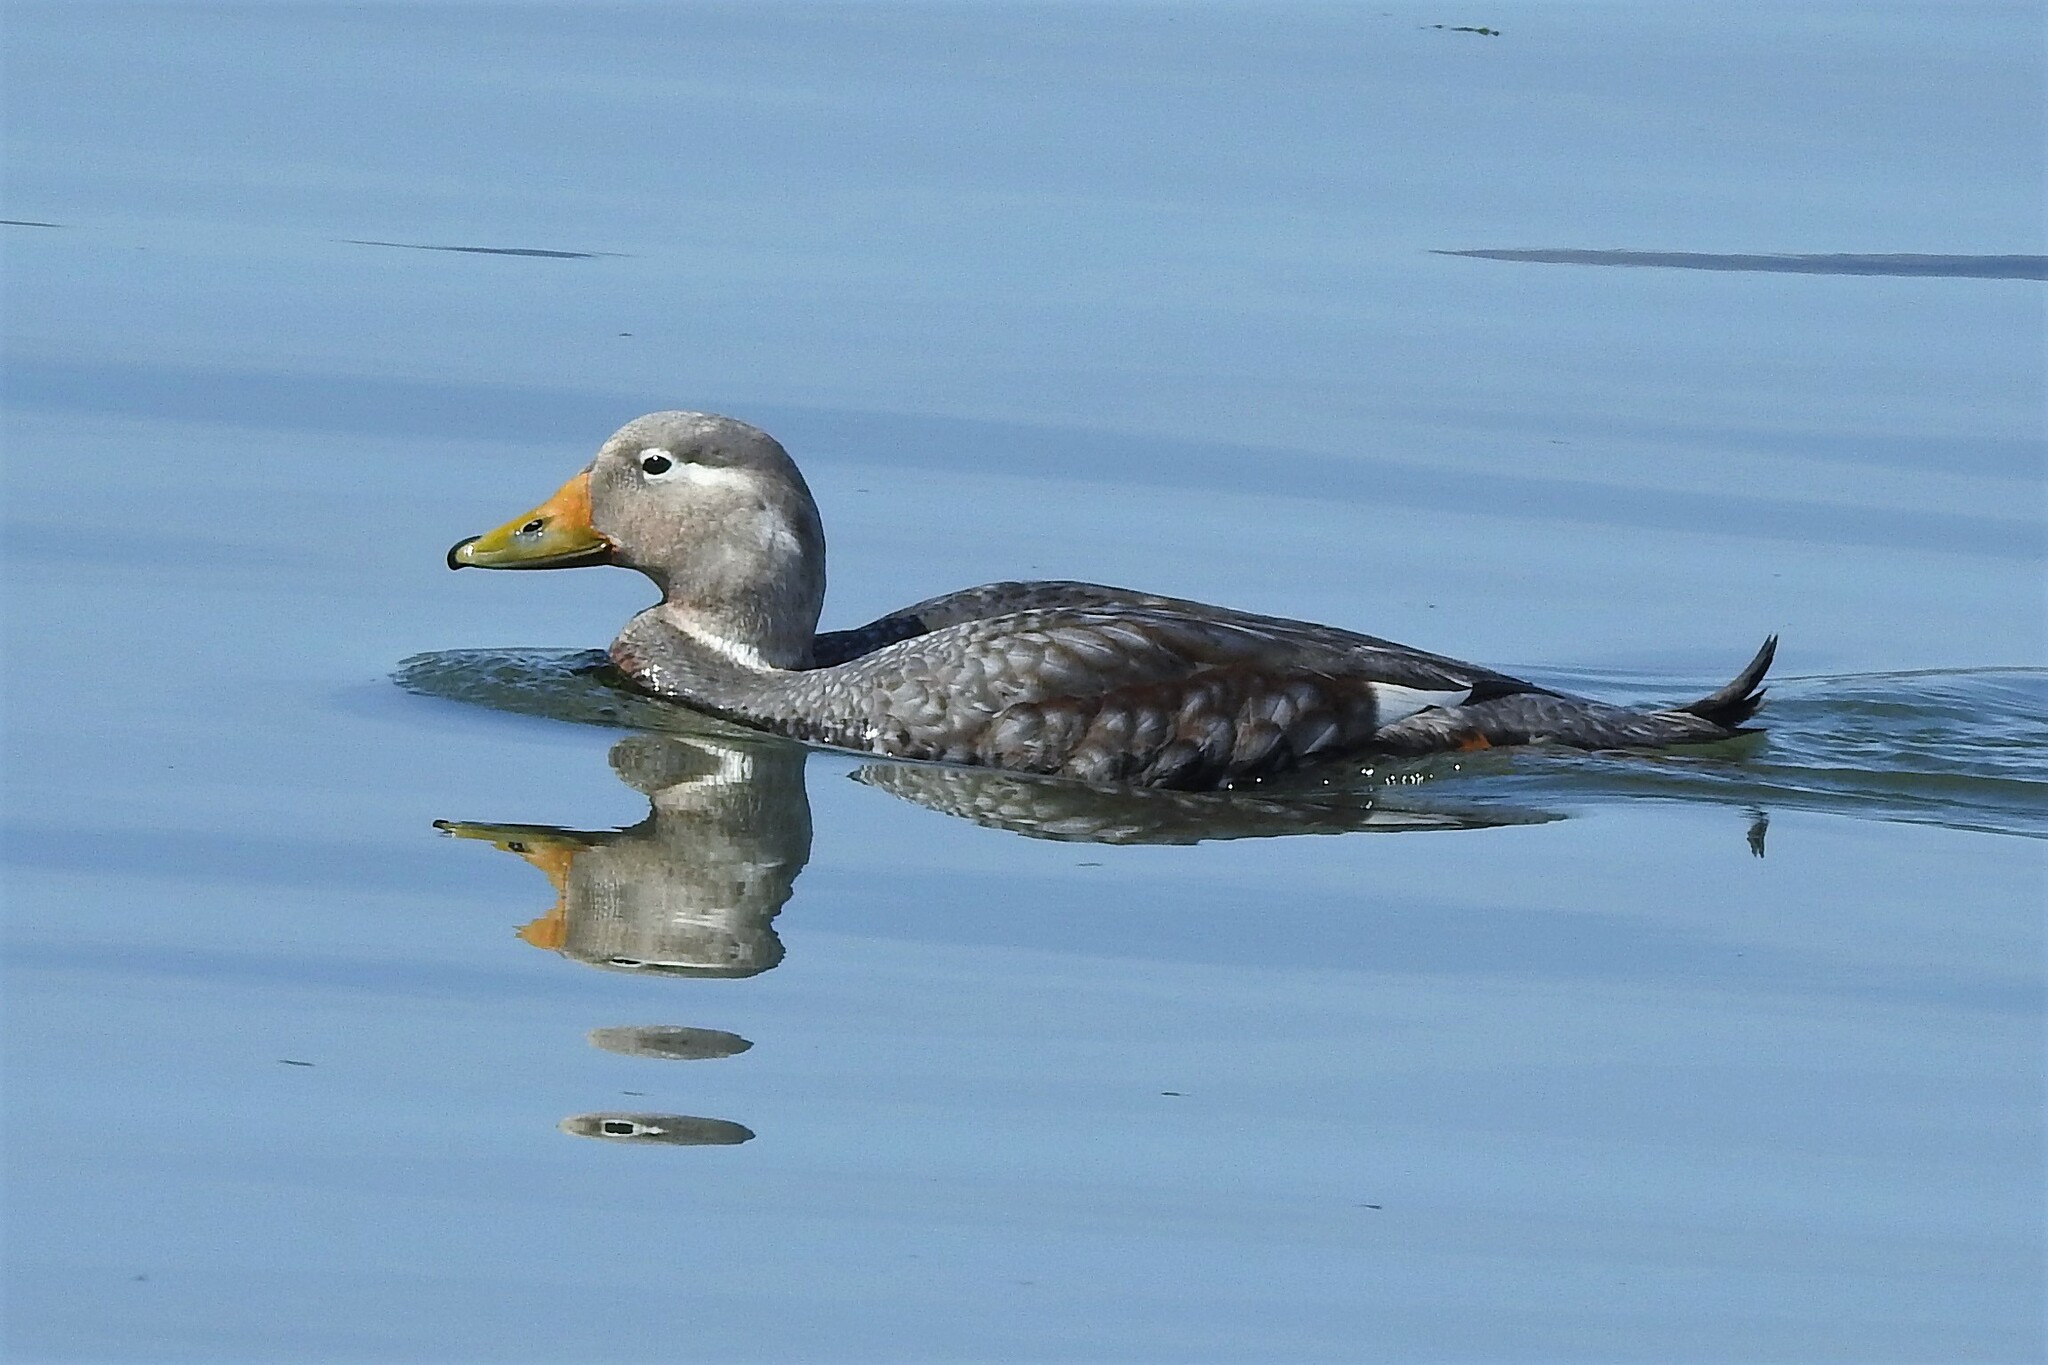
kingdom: Animalia
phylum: Chordata
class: Aves
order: Anseriformes
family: Anatidae
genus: Tachyeres
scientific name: Tachyeres patachonicus
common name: Flying steamer duck
